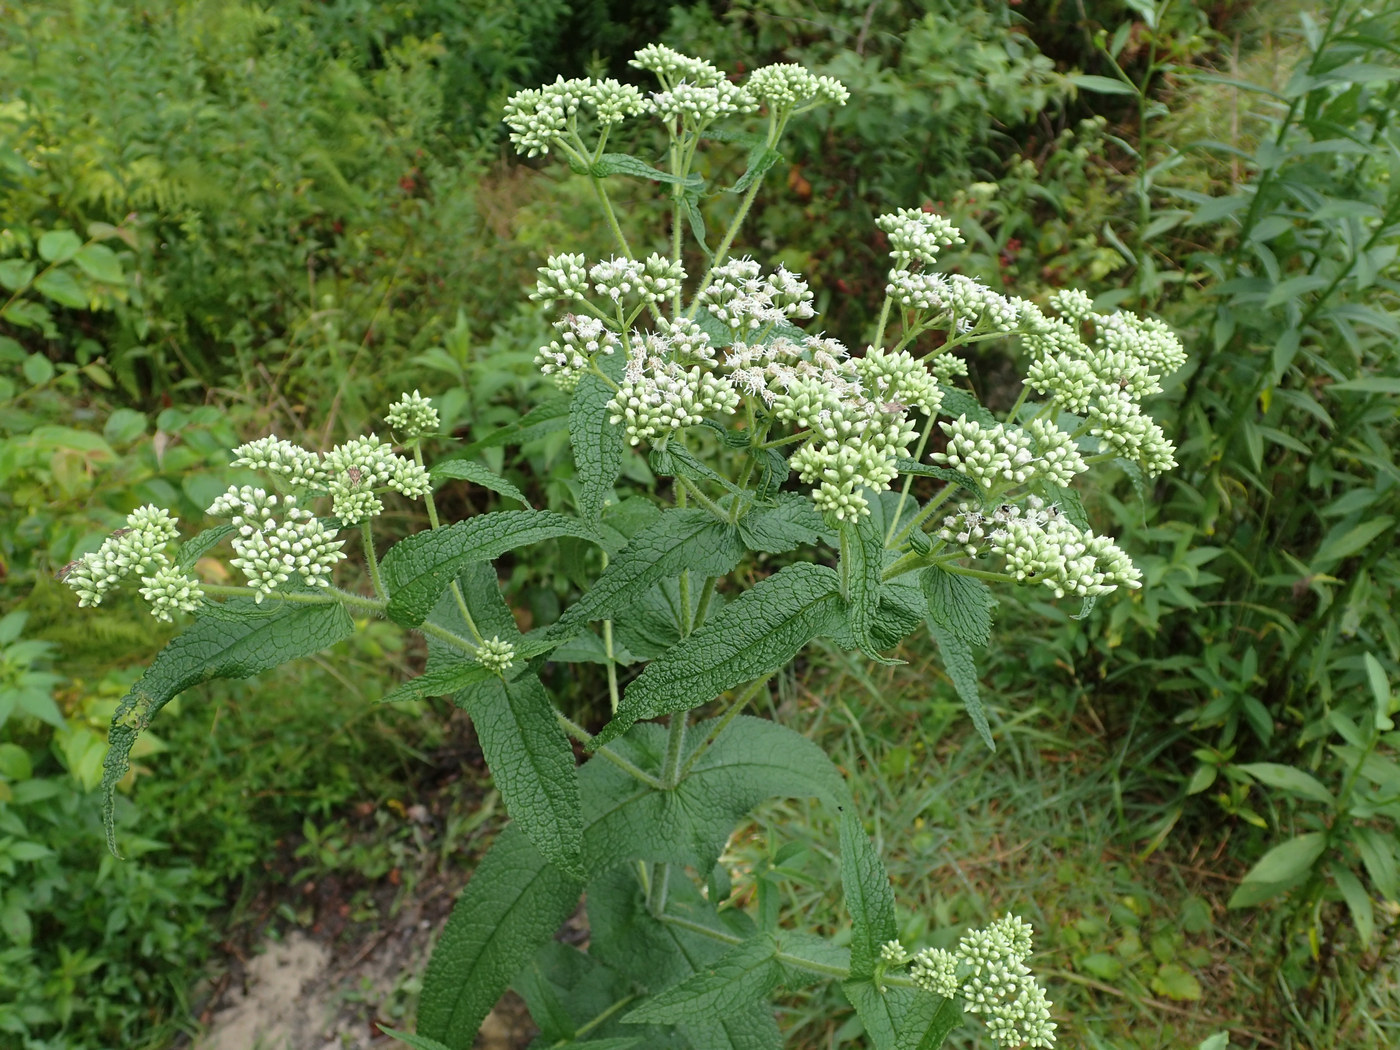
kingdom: Plantae
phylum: Tracheophyta
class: Magnoliopsida
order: Asterales
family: Asteraceae
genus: Eupatorium
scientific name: Eupatorium perfoliatum
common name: Boneset
